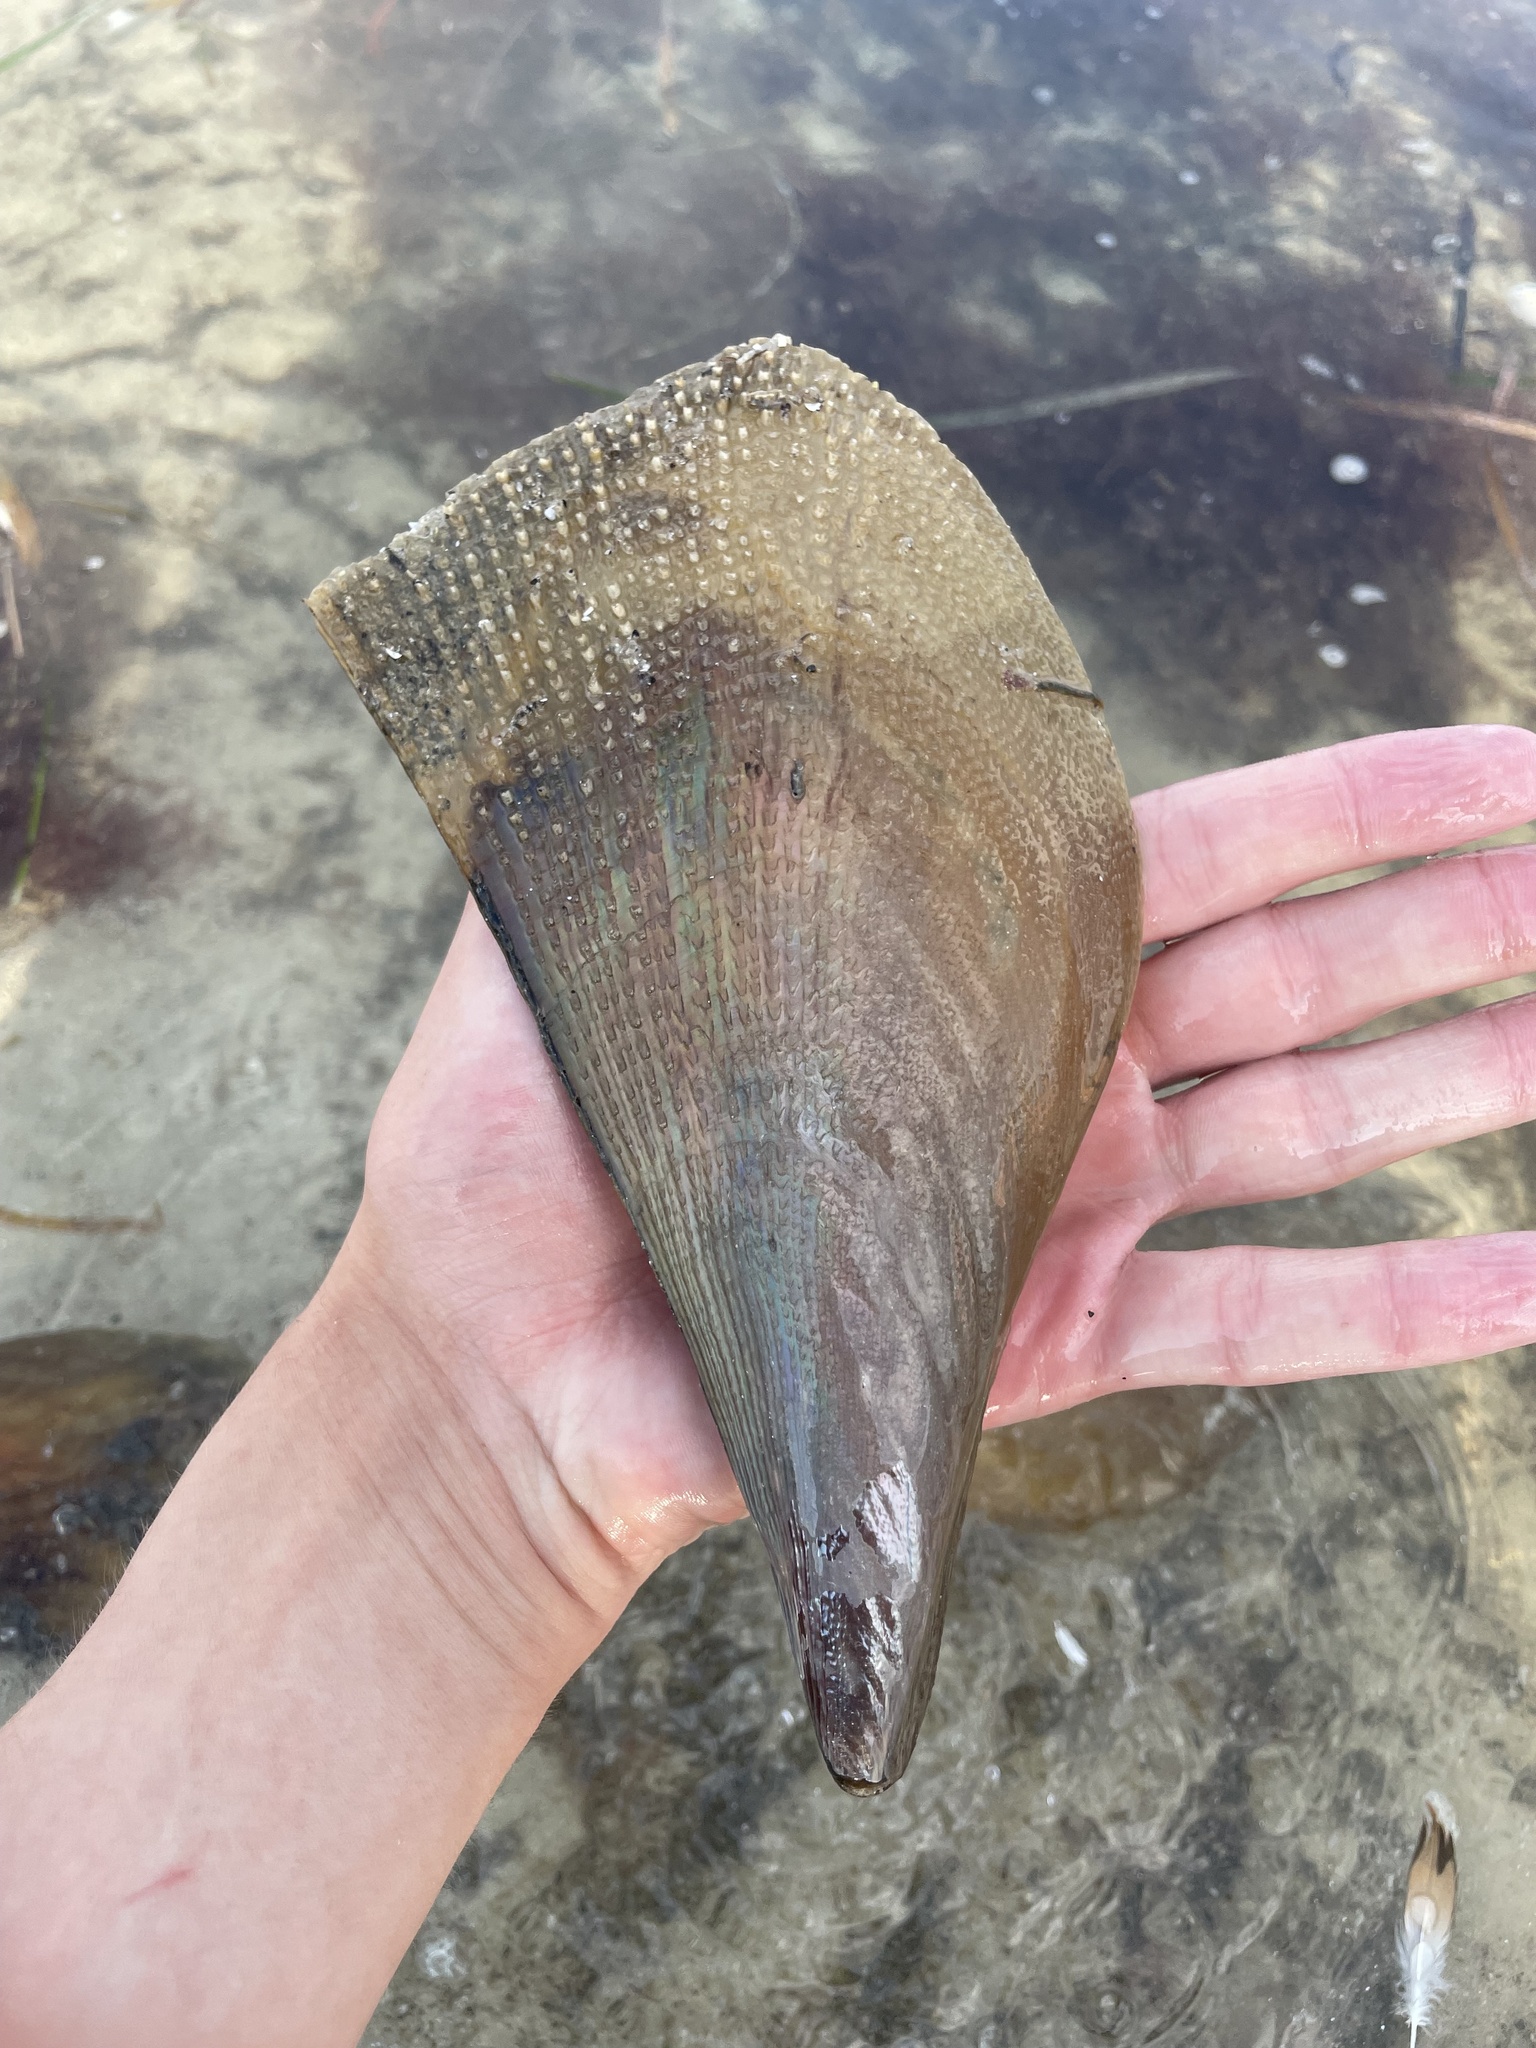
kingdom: Animalia
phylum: Mollusca
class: Bivalvia
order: Ostreida
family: Pinnidae
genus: Atrina
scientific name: Atrina serrata
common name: Saw-toothed penshell
